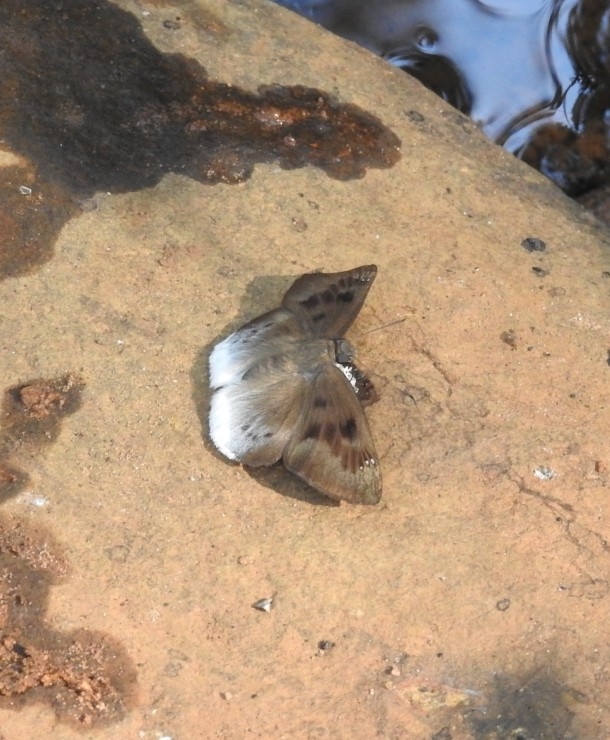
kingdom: Animalia
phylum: Arthropoda
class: Insecta
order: Lepidoptera
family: Hesperiidae
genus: Tagiades
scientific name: Tagiades gana
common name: Suffused snow flat
